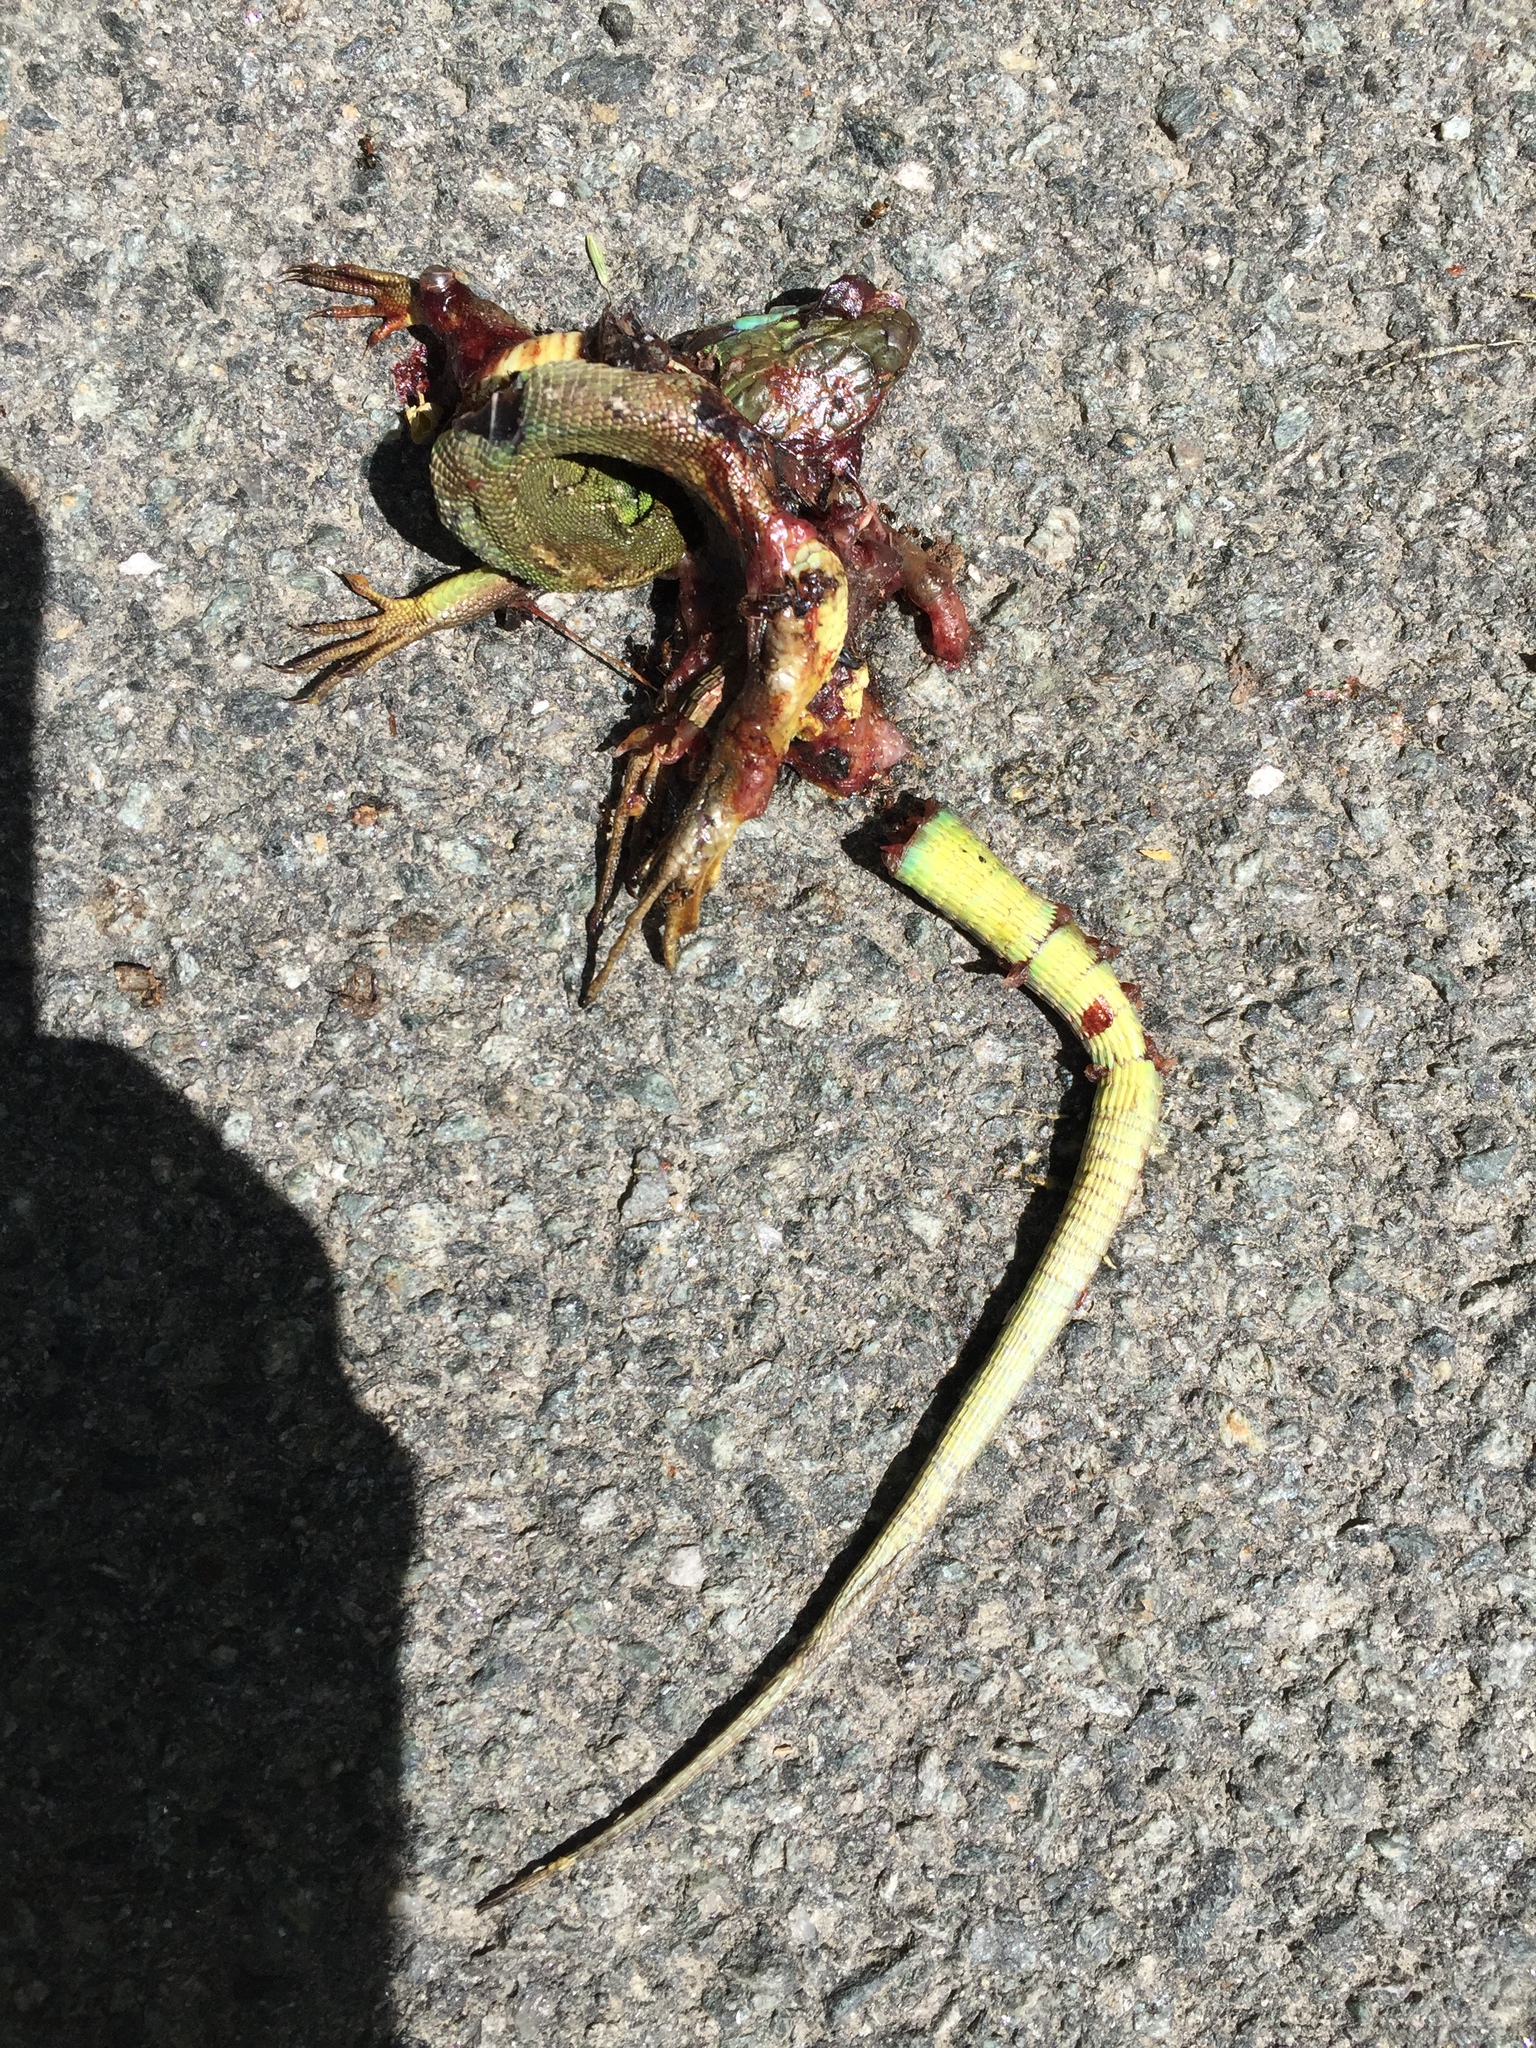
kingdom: Animalia
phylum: Chordata
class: Squamata
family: Lacertidae
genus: Lacerta
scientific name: Lacerta bilineata
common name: Western green lizard
